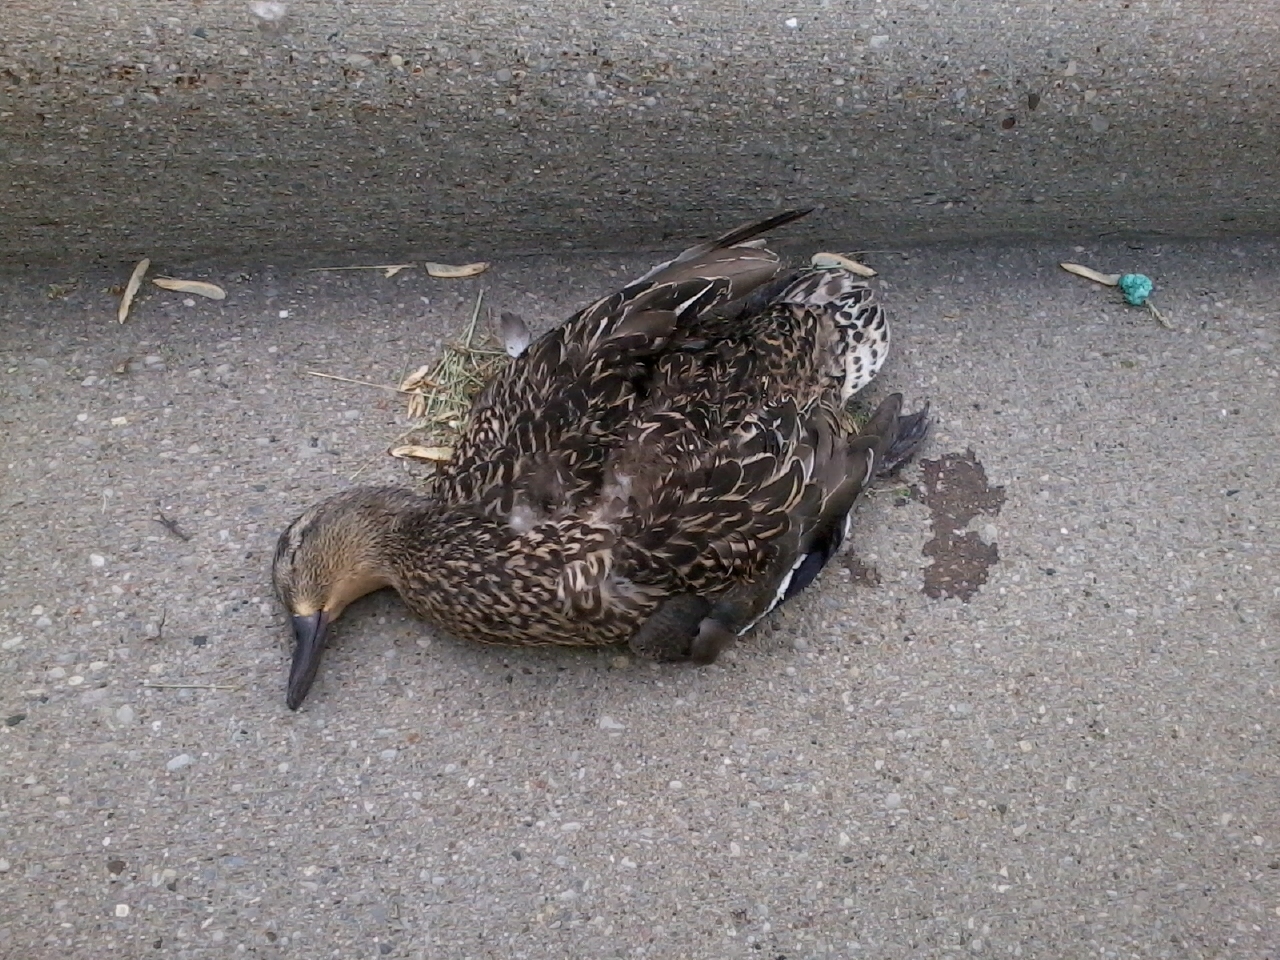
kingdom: Animalia
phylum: Chordata
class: Aves
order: Anseriformes
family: Anatidae
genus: Anas
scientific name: Anas platyrhynchos
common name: Mallard
